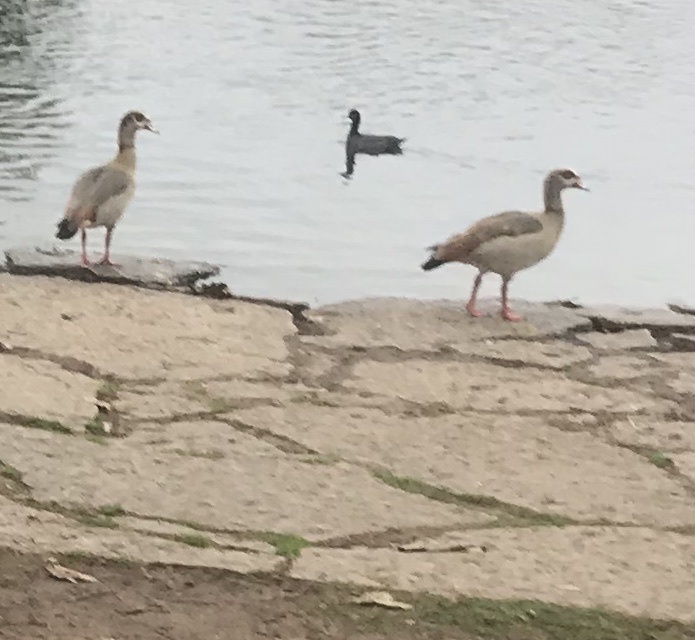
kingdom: Animalia
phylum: Chordata
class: Aves
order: Anseriformes
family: Anatidae
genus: Alopochen
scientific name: Alopochen aegyptiaca
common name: Egyptian goose
